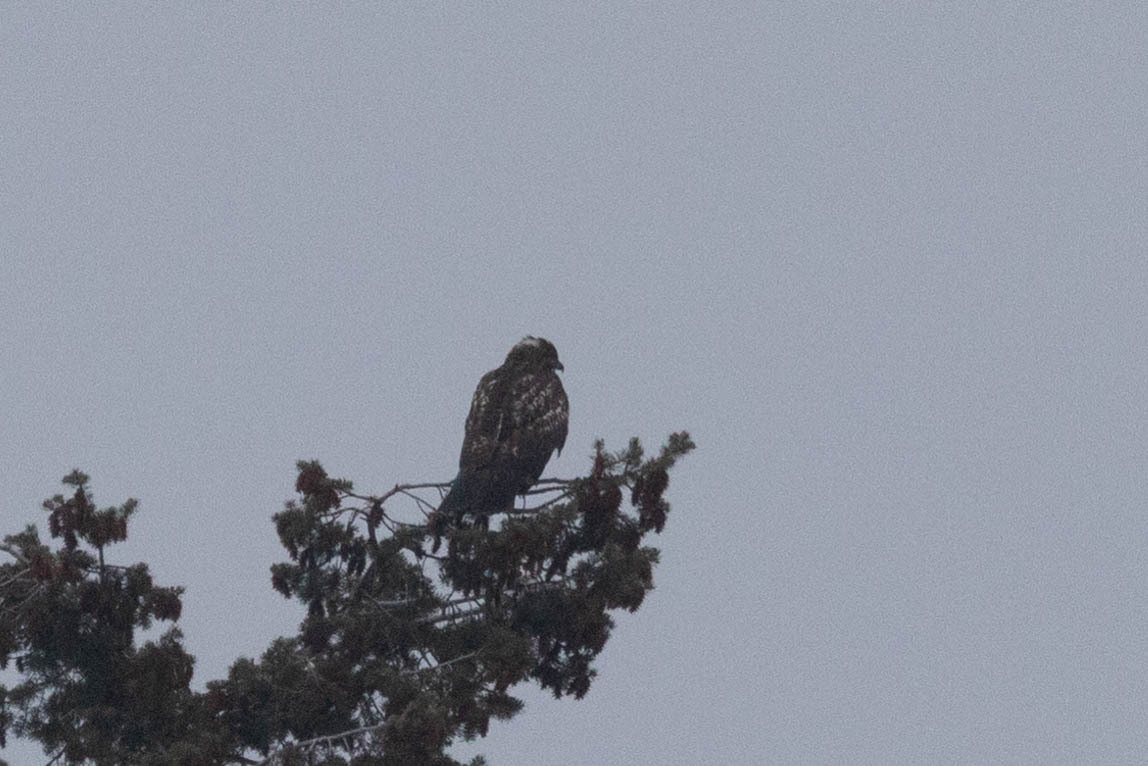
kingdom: Animalia
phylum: Chordata
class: Aves
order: Accipitriformes
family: Accipitridae
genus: Buteo
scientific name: Buteo jamaicensis
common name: Red-tailed hawk
